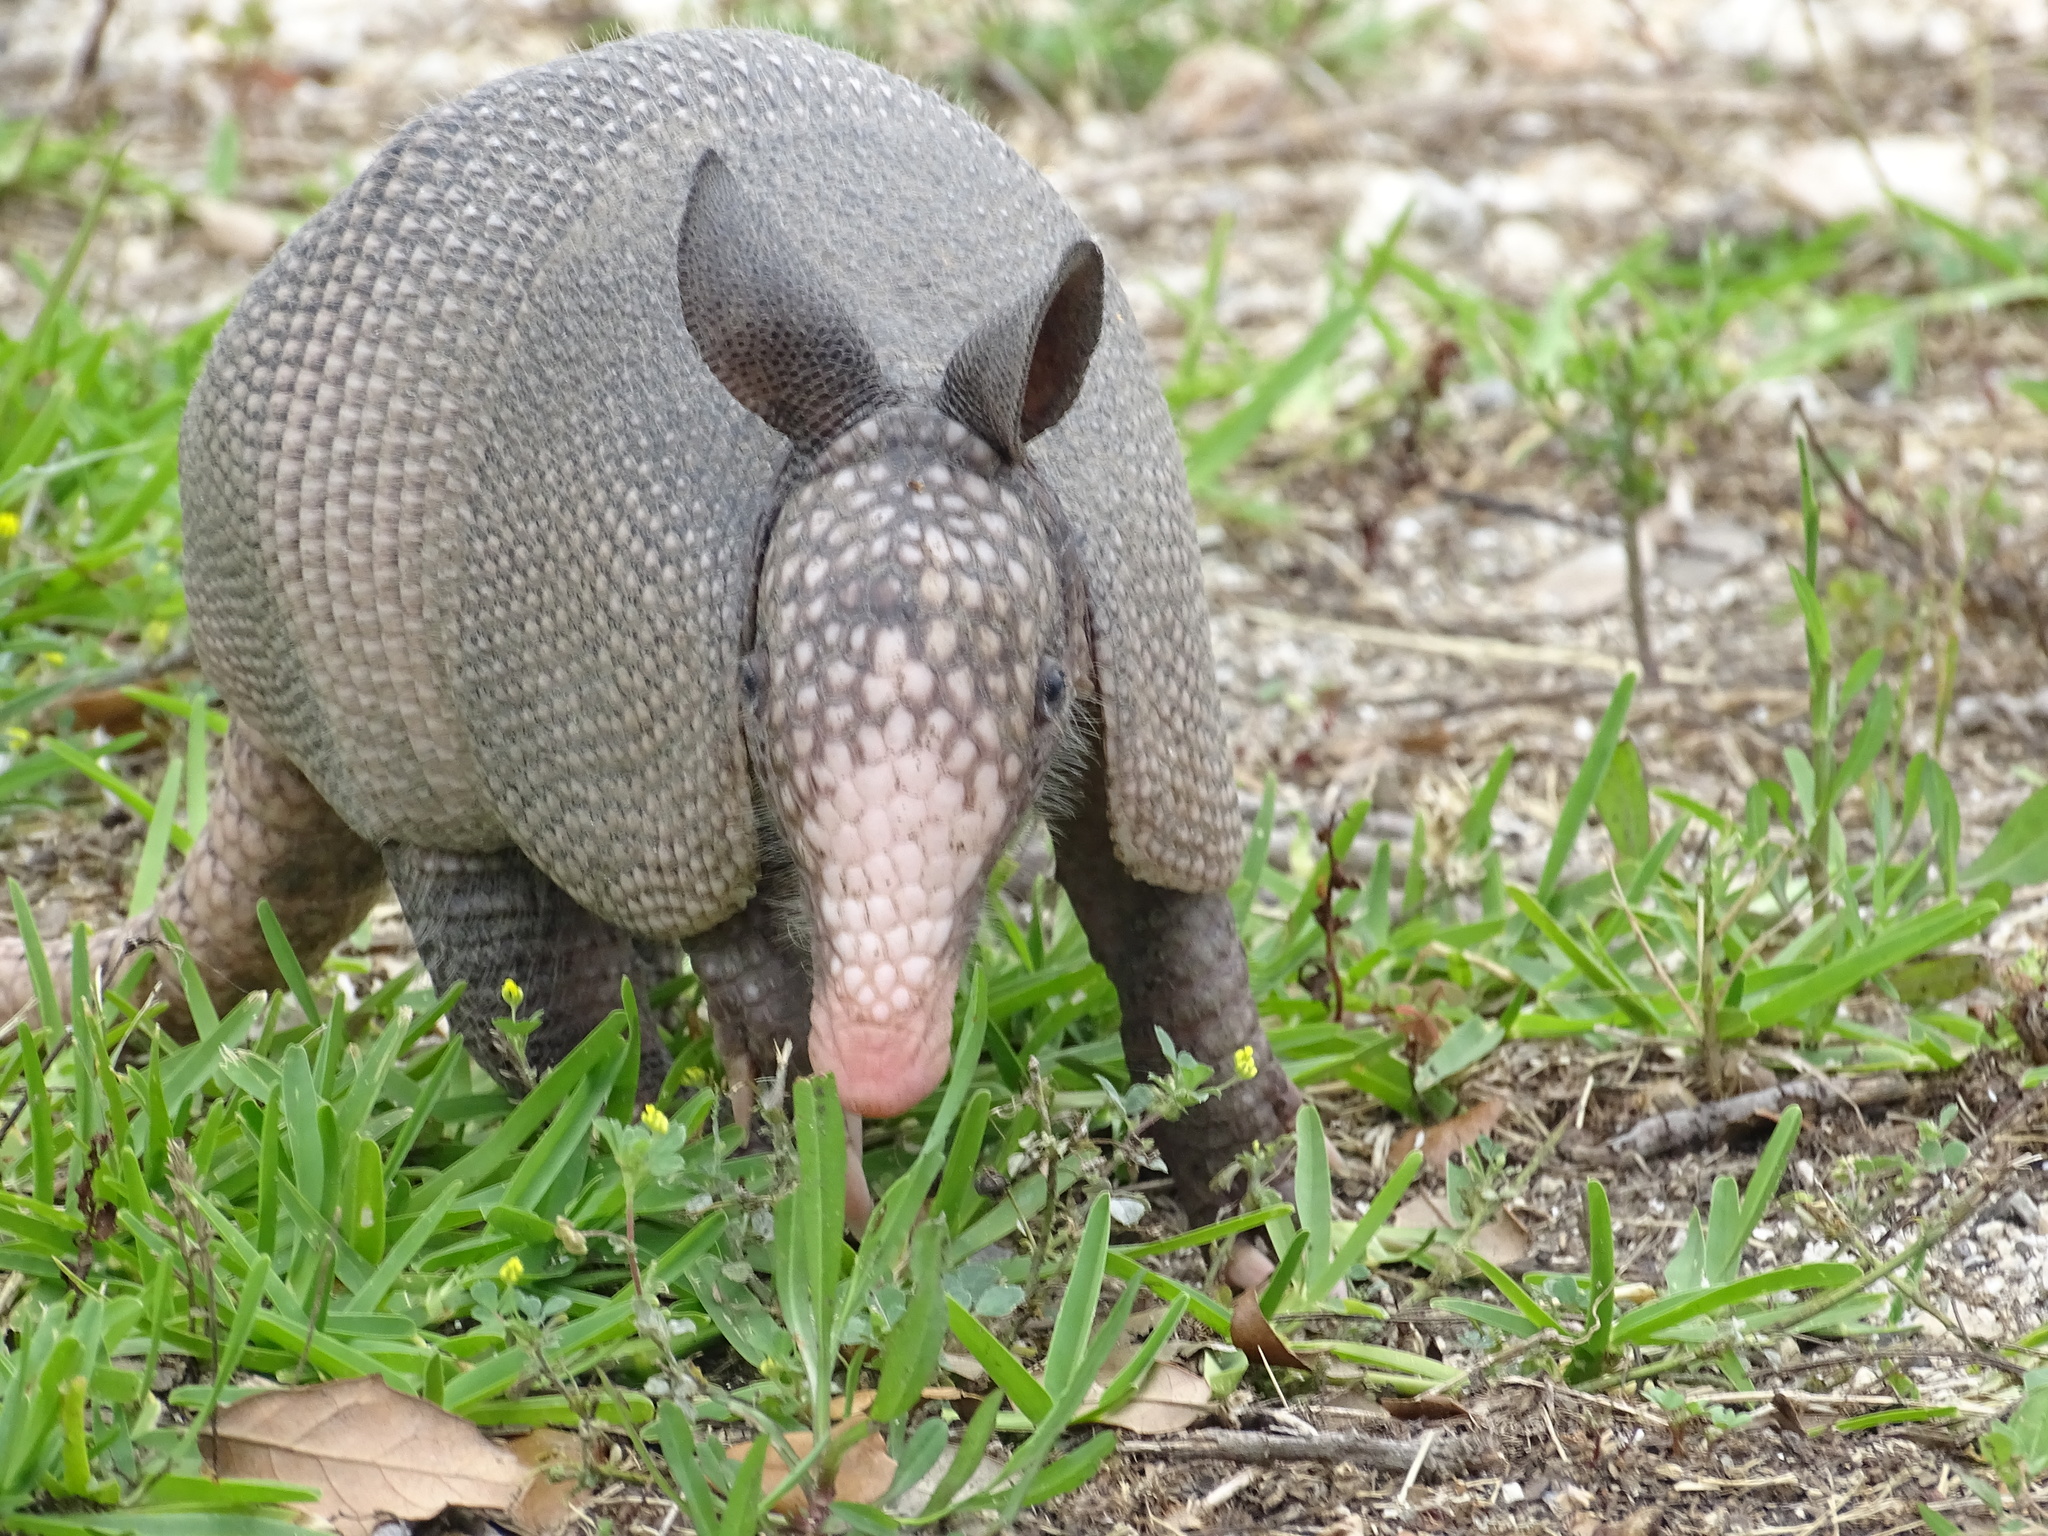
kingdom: Animalia
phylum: Chordata
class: Mammalia
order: Cingulata
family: Dasypodidae
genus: Dasypus
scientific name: Dasypus novemcinctus
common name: Nine-banded armadillo
